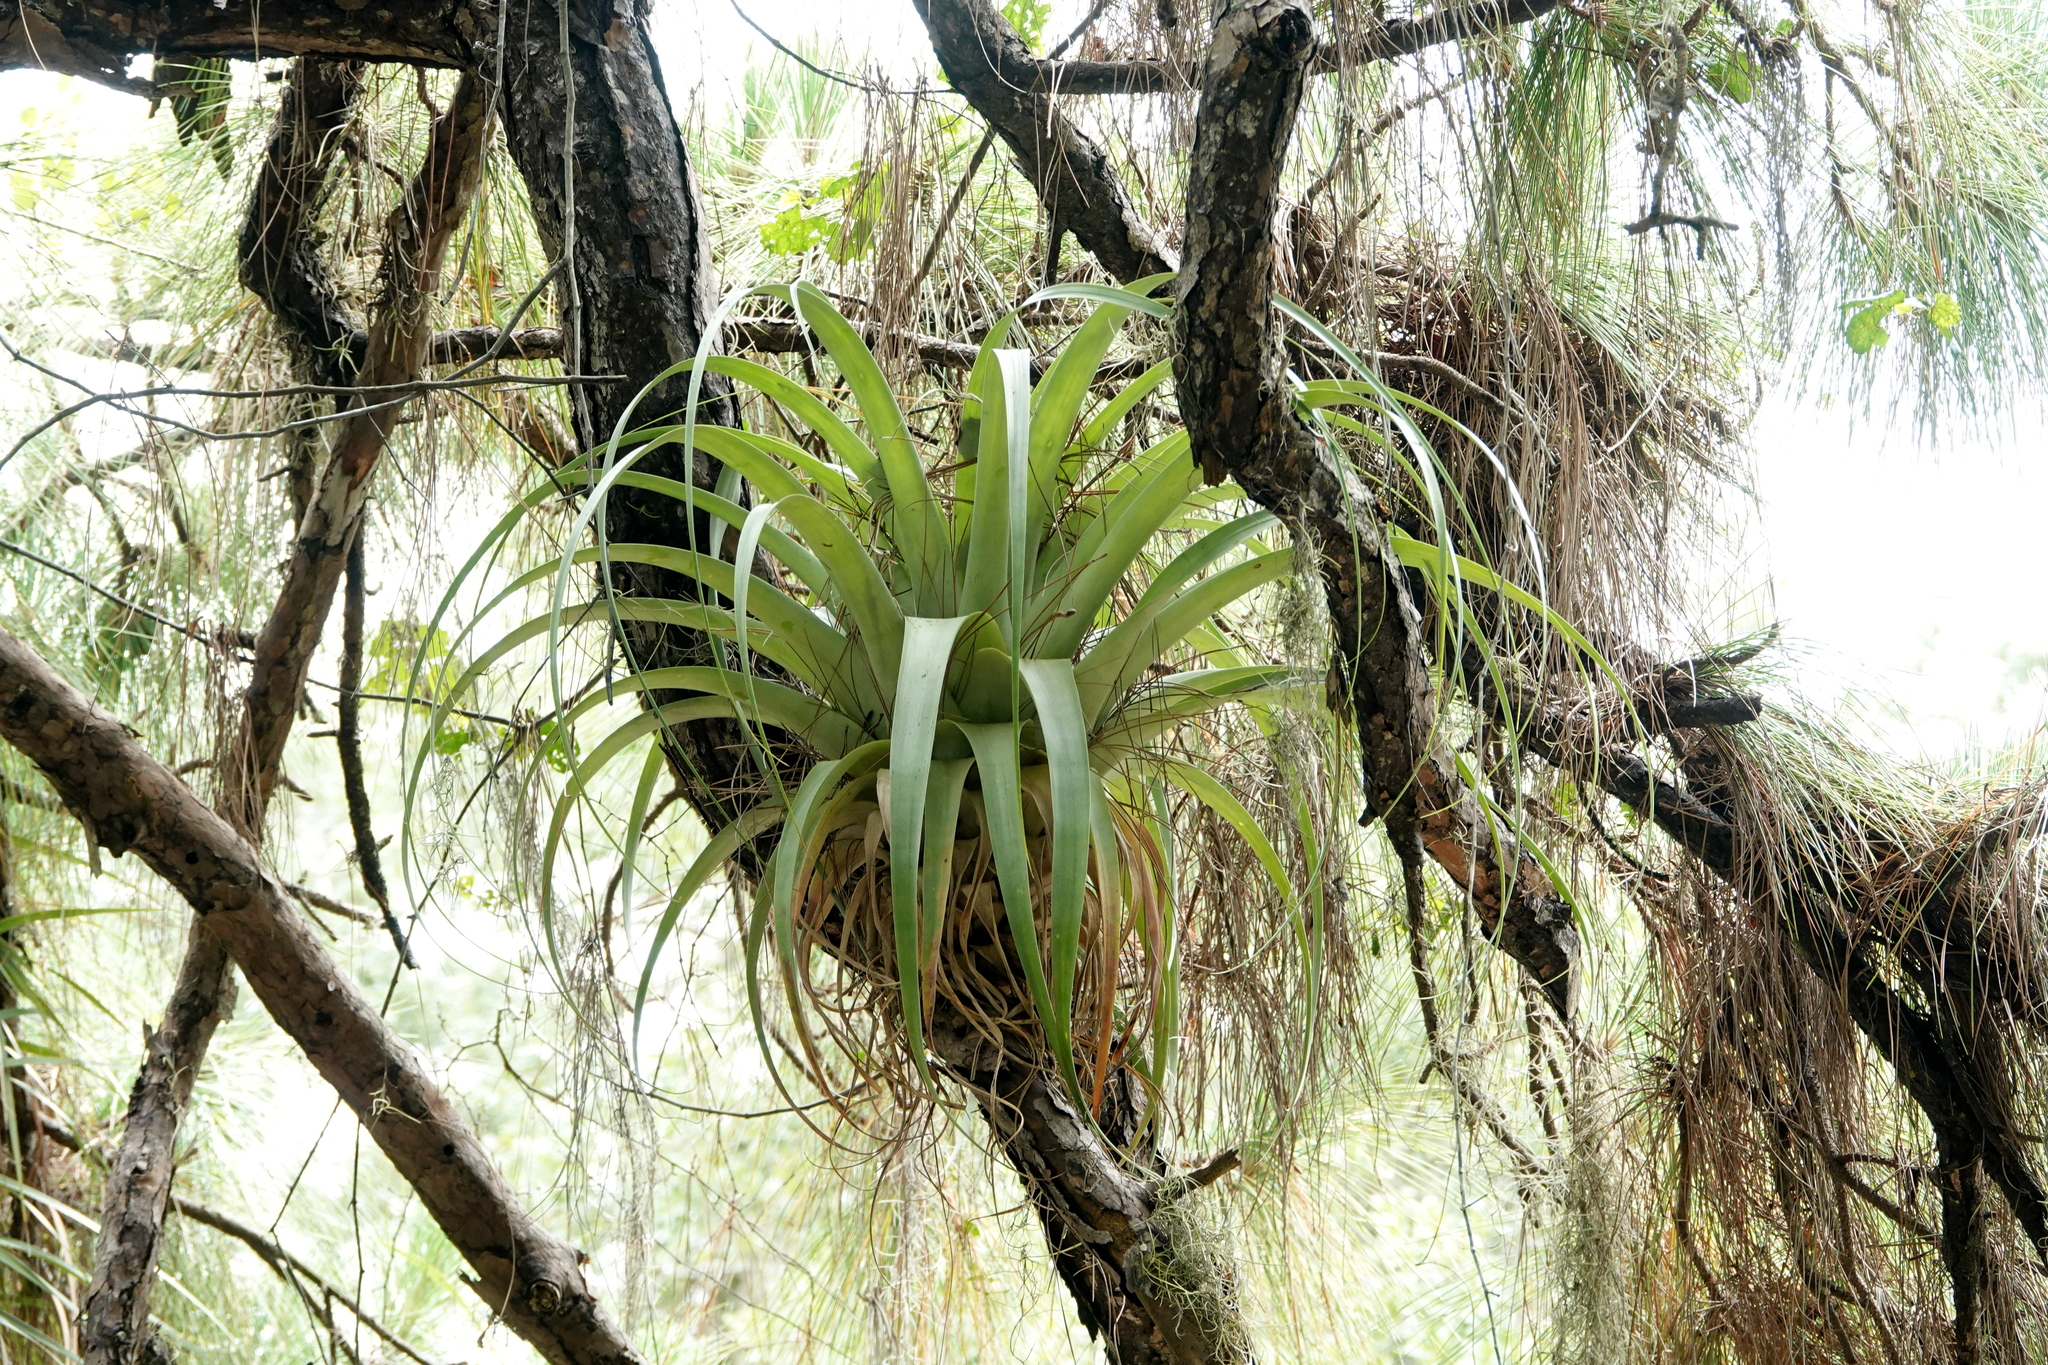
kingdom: Plantae
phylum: Tracheophyta
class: Liliopsida
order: Poales
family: Bromeliaceae
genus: Tillandsia
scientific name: Tillandsia utriculata
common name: Wild pine
